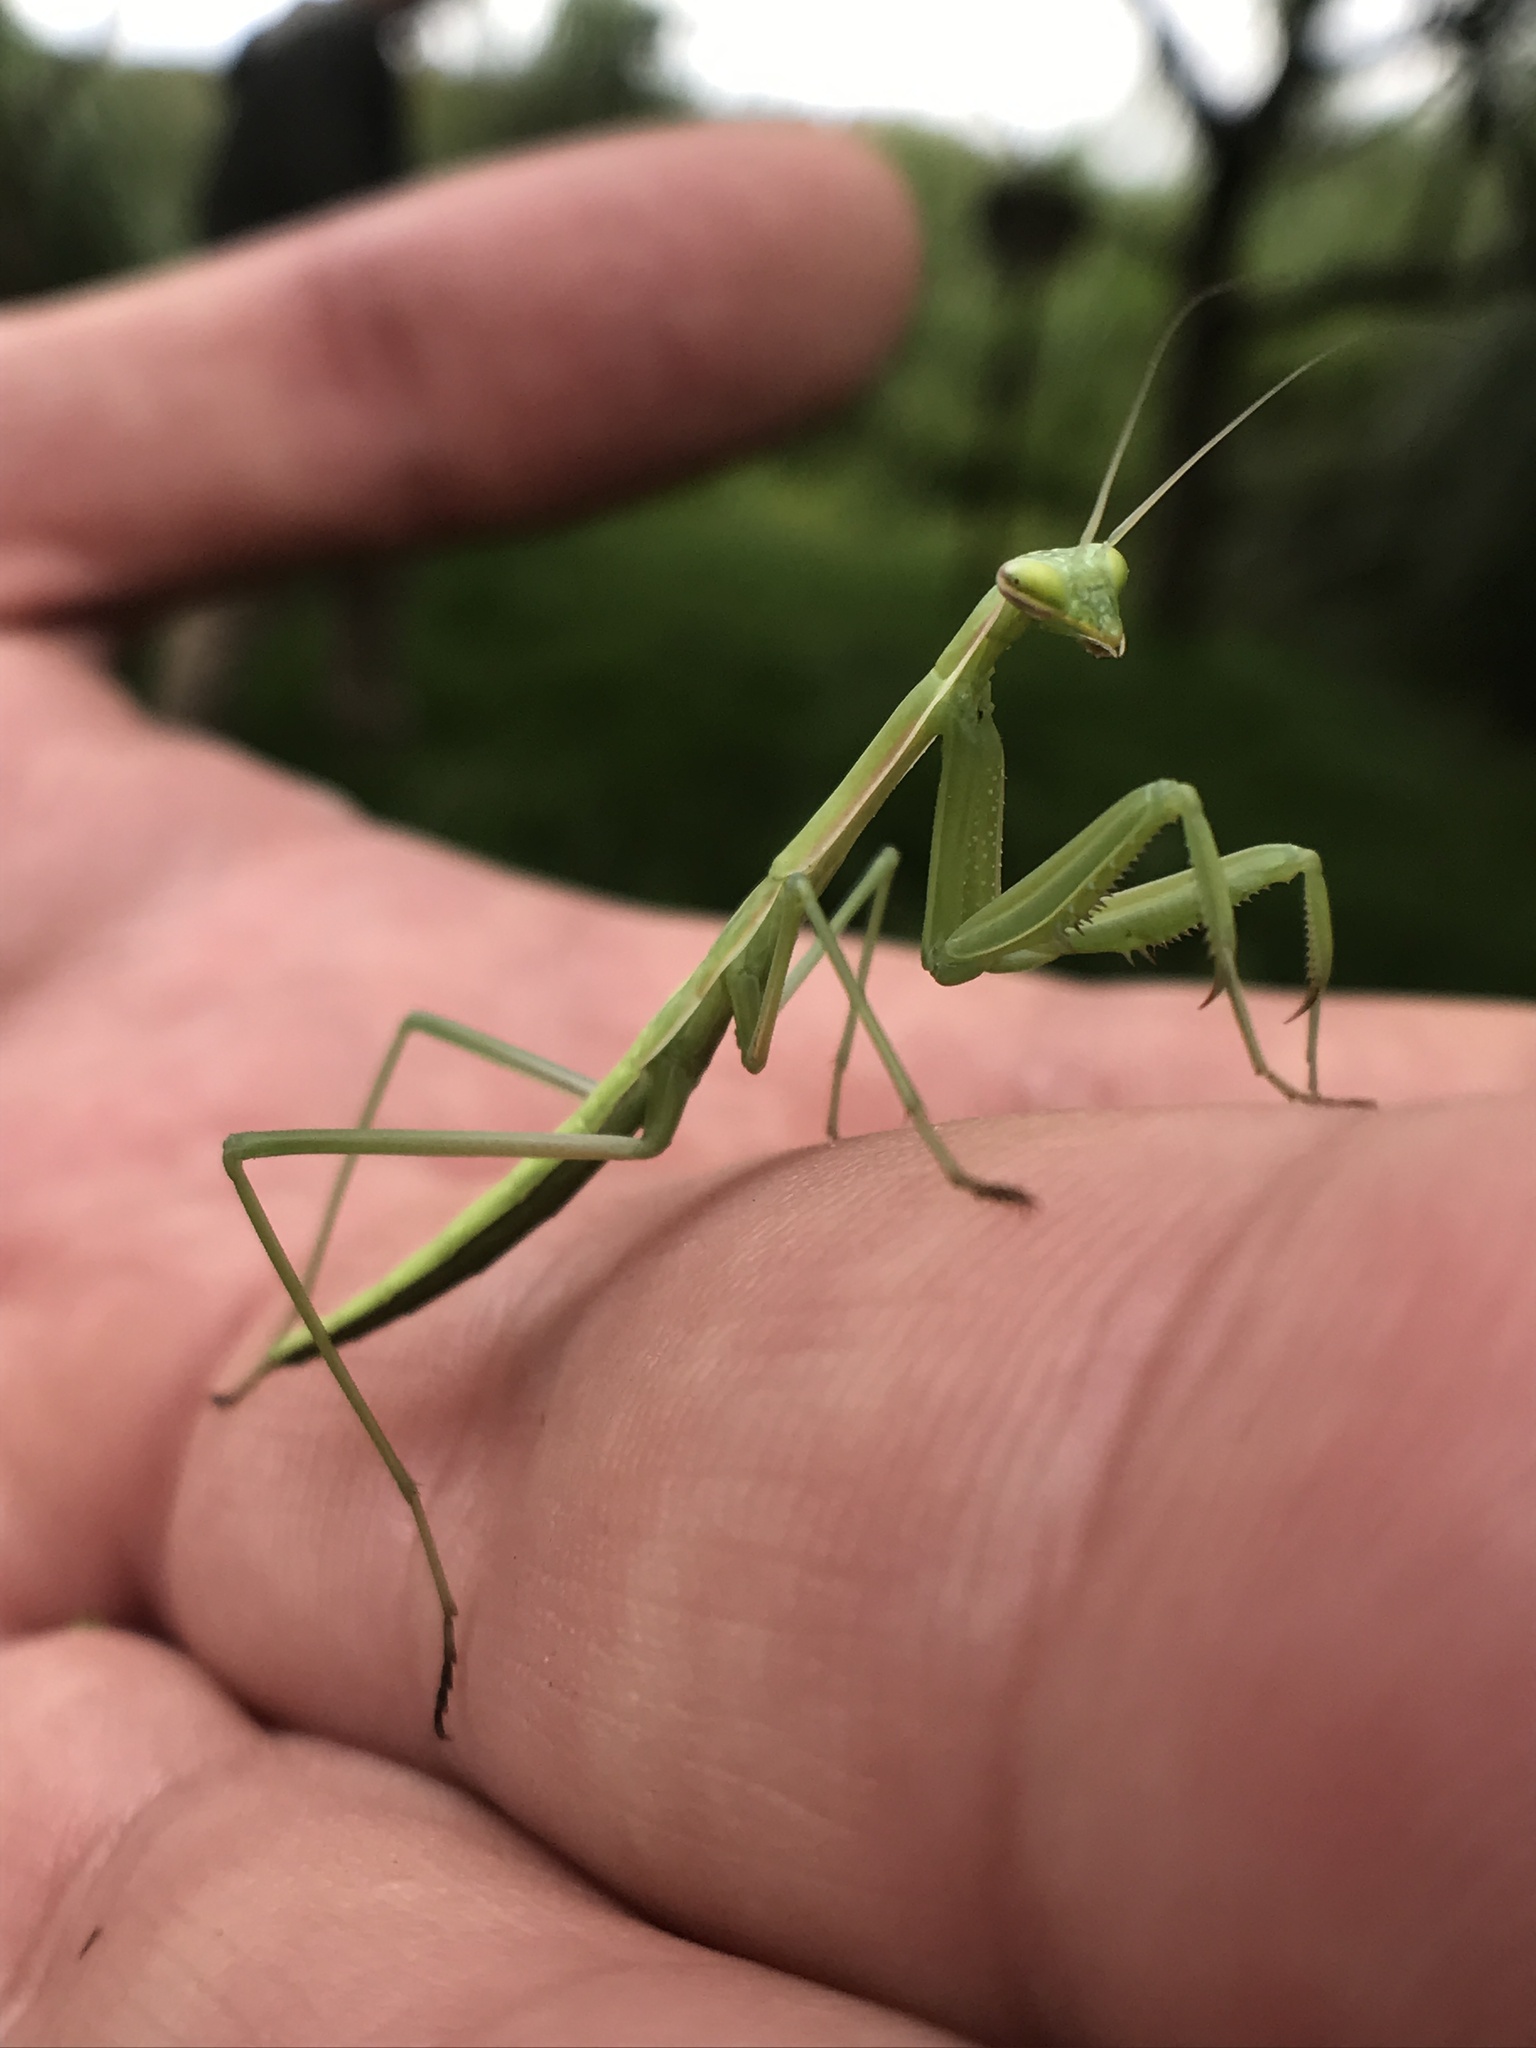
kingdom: Animalia
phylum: Arthropoda
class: Insecta
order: Mantodea
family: Coptopterygidae
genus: Coptopteryx
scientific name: Coptopteryx argentina
